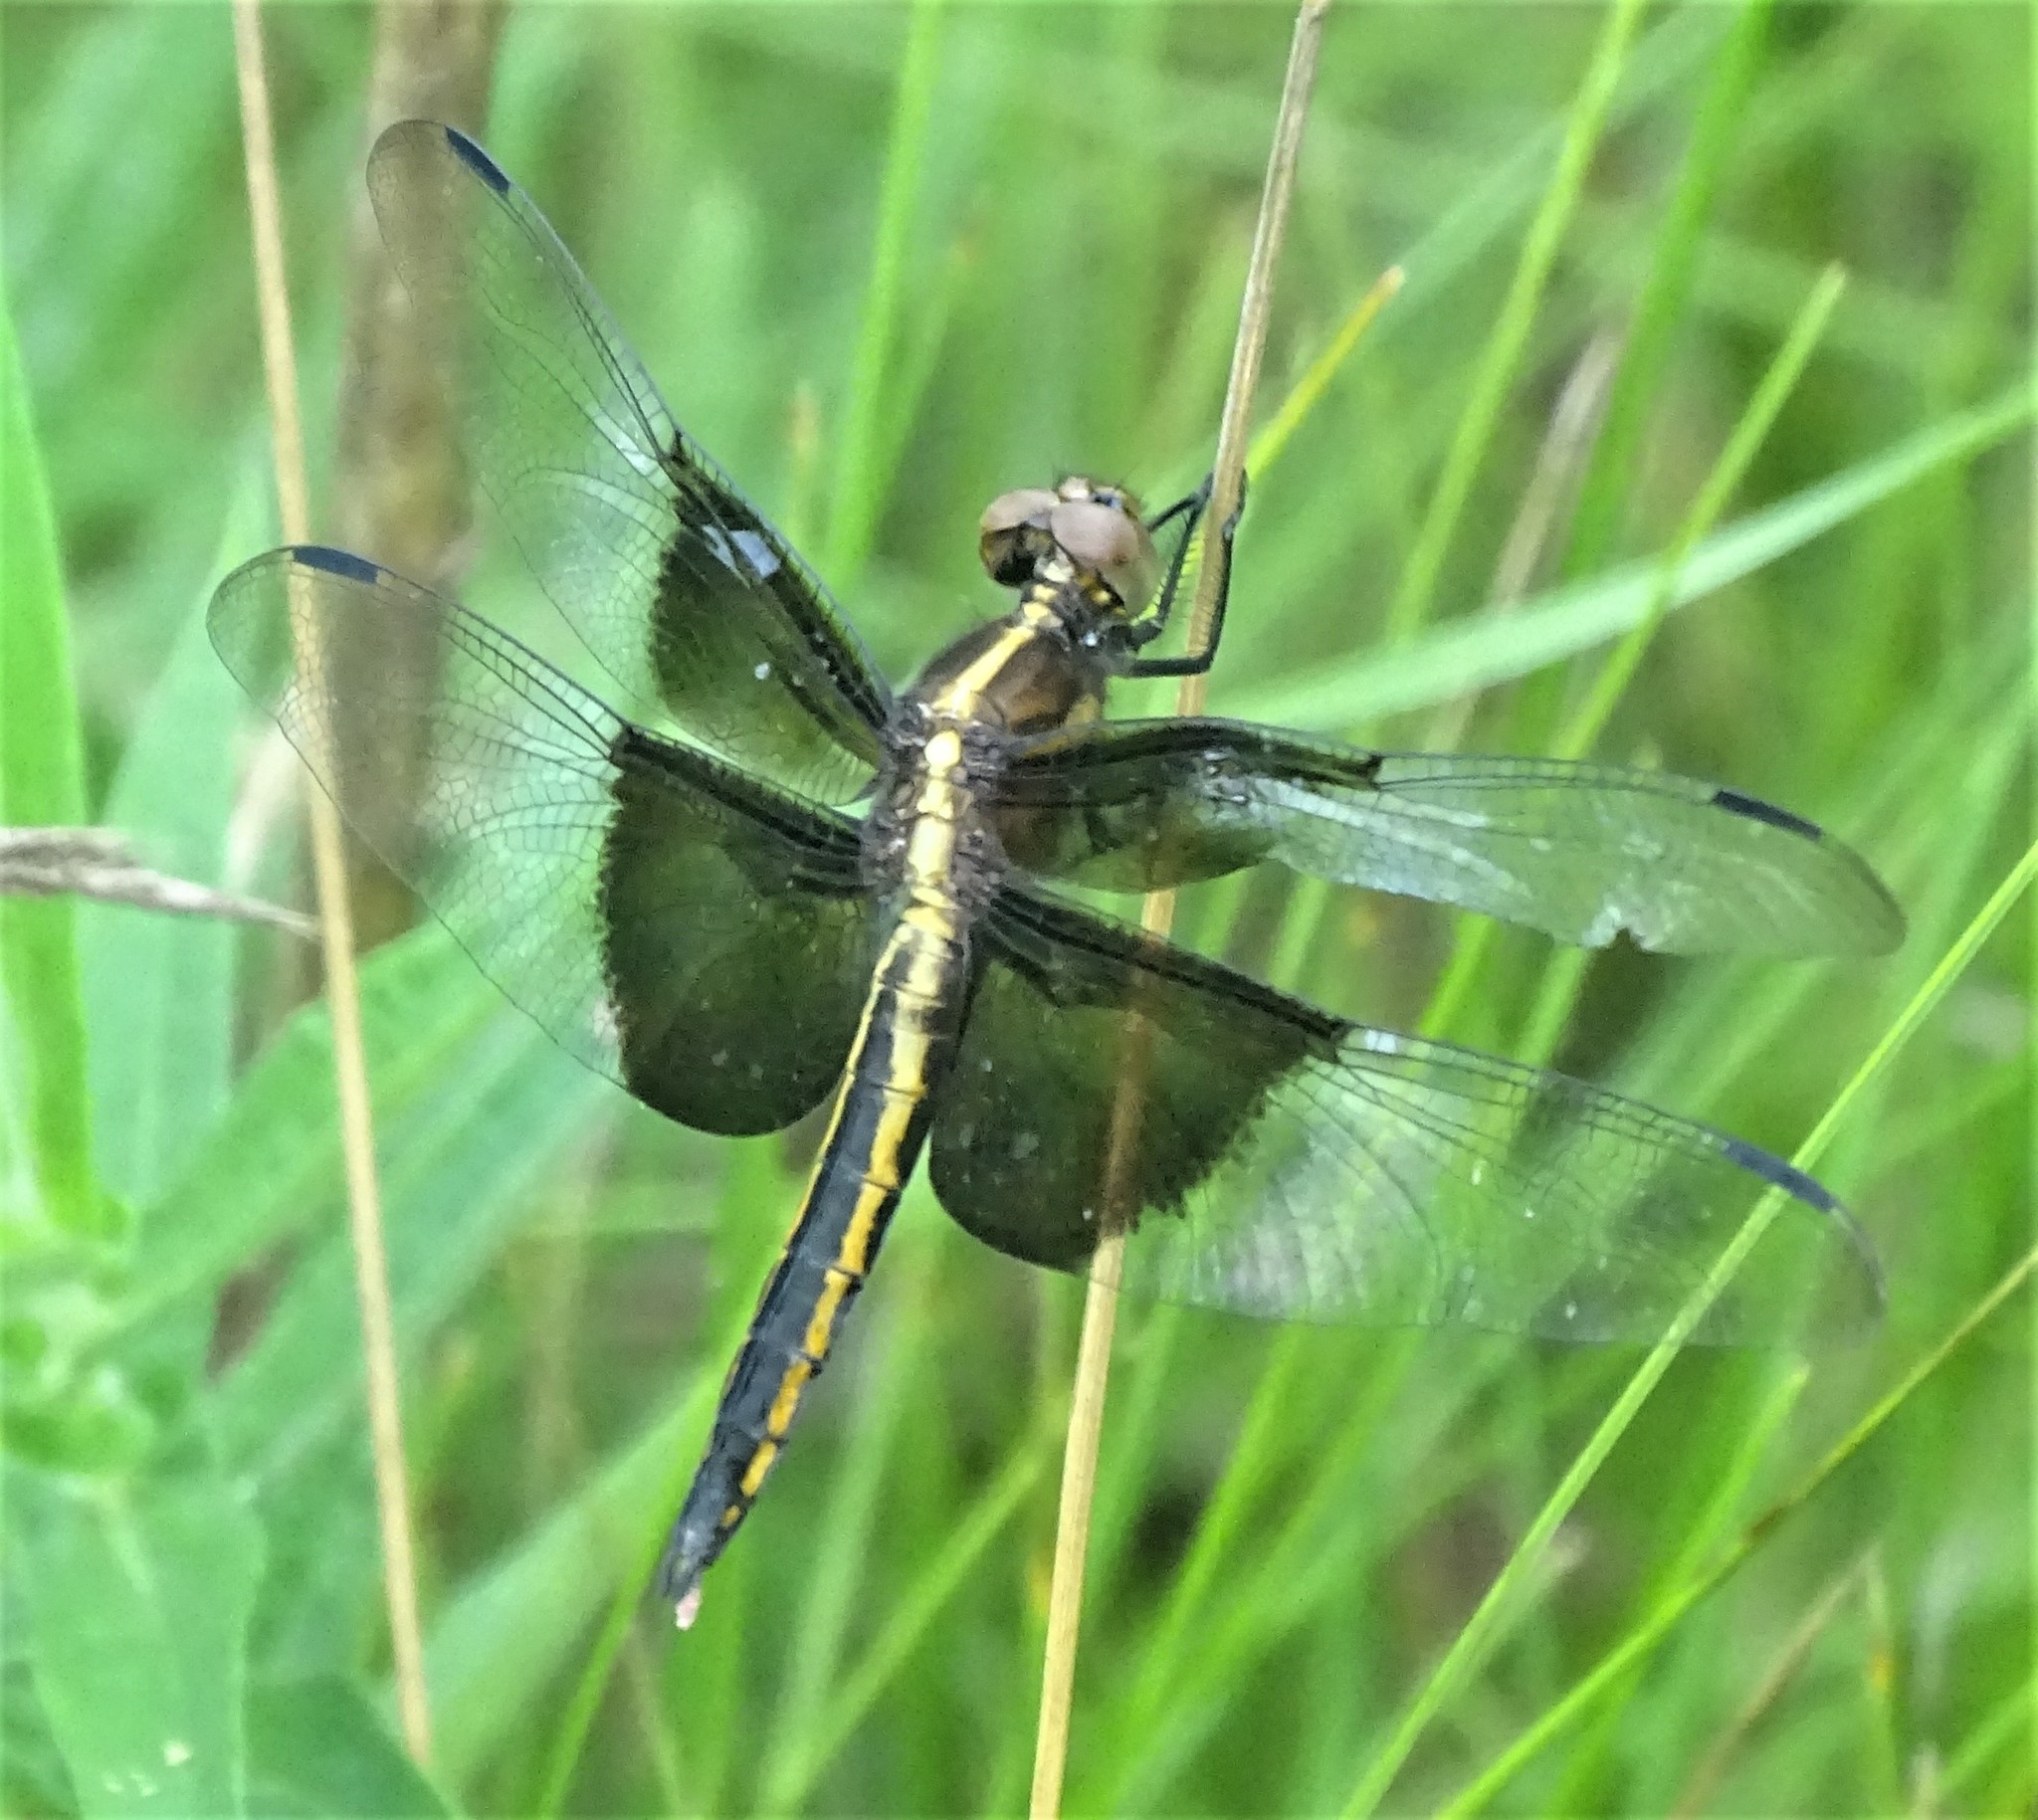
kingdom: Animalia
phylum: Arthropoda
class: Insecta
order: Odonata
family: Libellulidae
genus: Libellula
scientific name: Libellula luctuosa
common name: Widow skimmer
